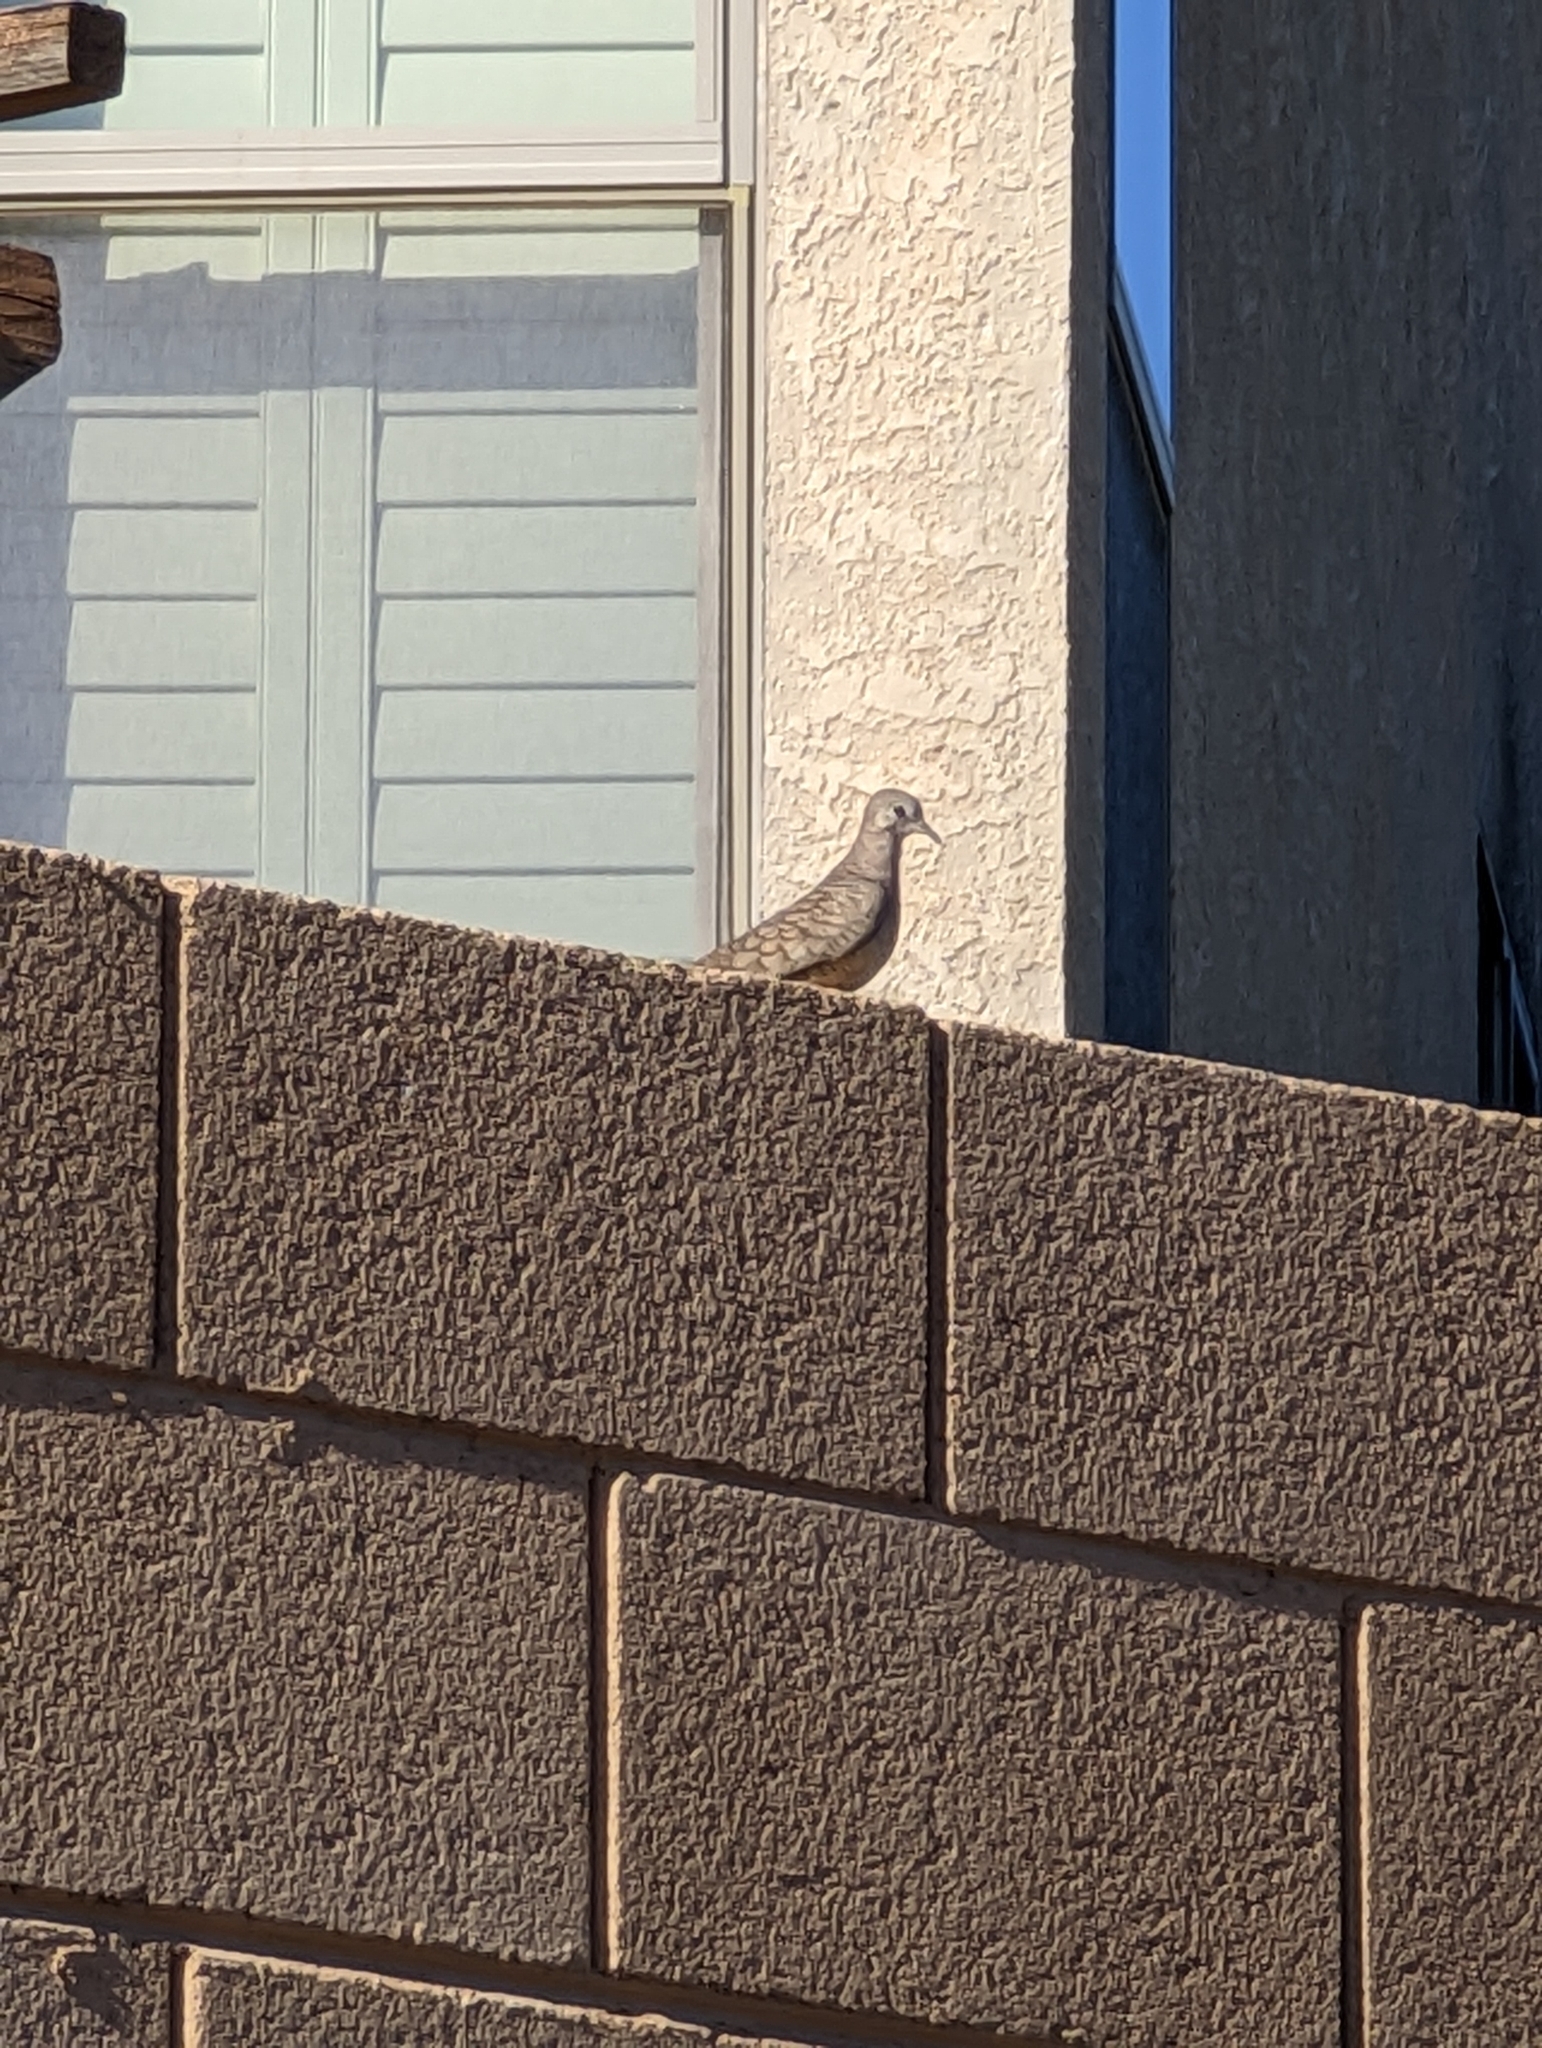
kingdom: Animalia
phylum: Chordata
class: Aves
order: Columbiformes
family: Columbidae
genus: Columbina
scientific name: Columbina inca
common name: Inca dove
